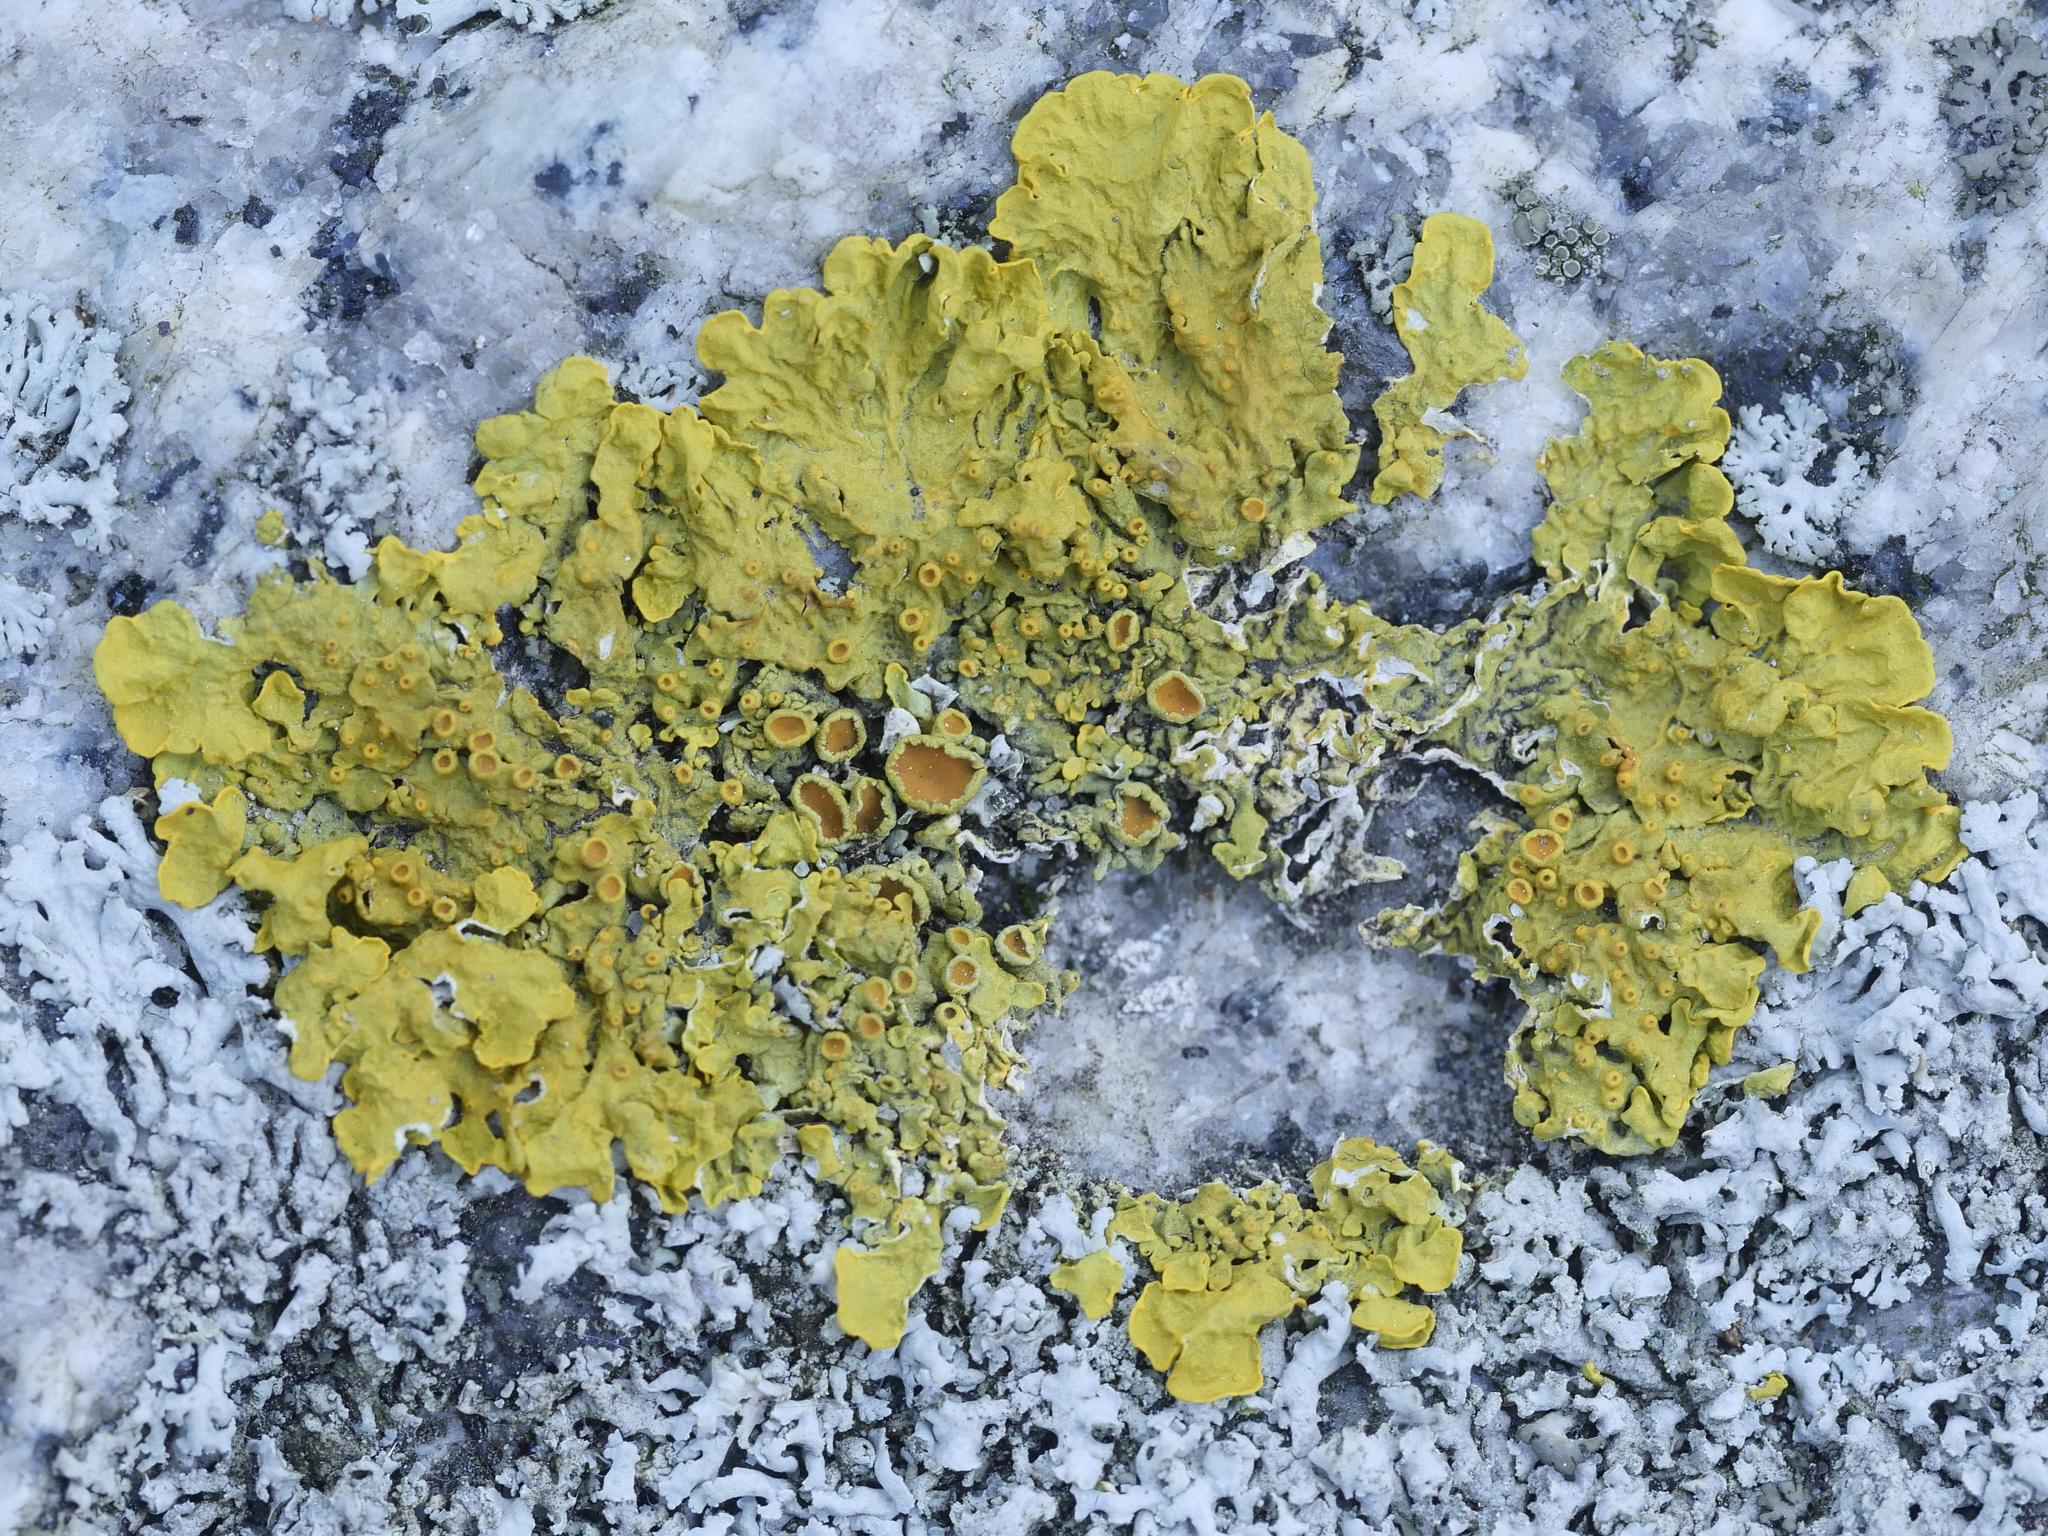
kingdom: Fungi
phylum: Ascomycota
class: Lecanoromycetes
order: Teloschistales
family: Teloschistaceae
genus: Xanthoria
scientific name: Xanthoria parietina
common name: Common orange lichen
